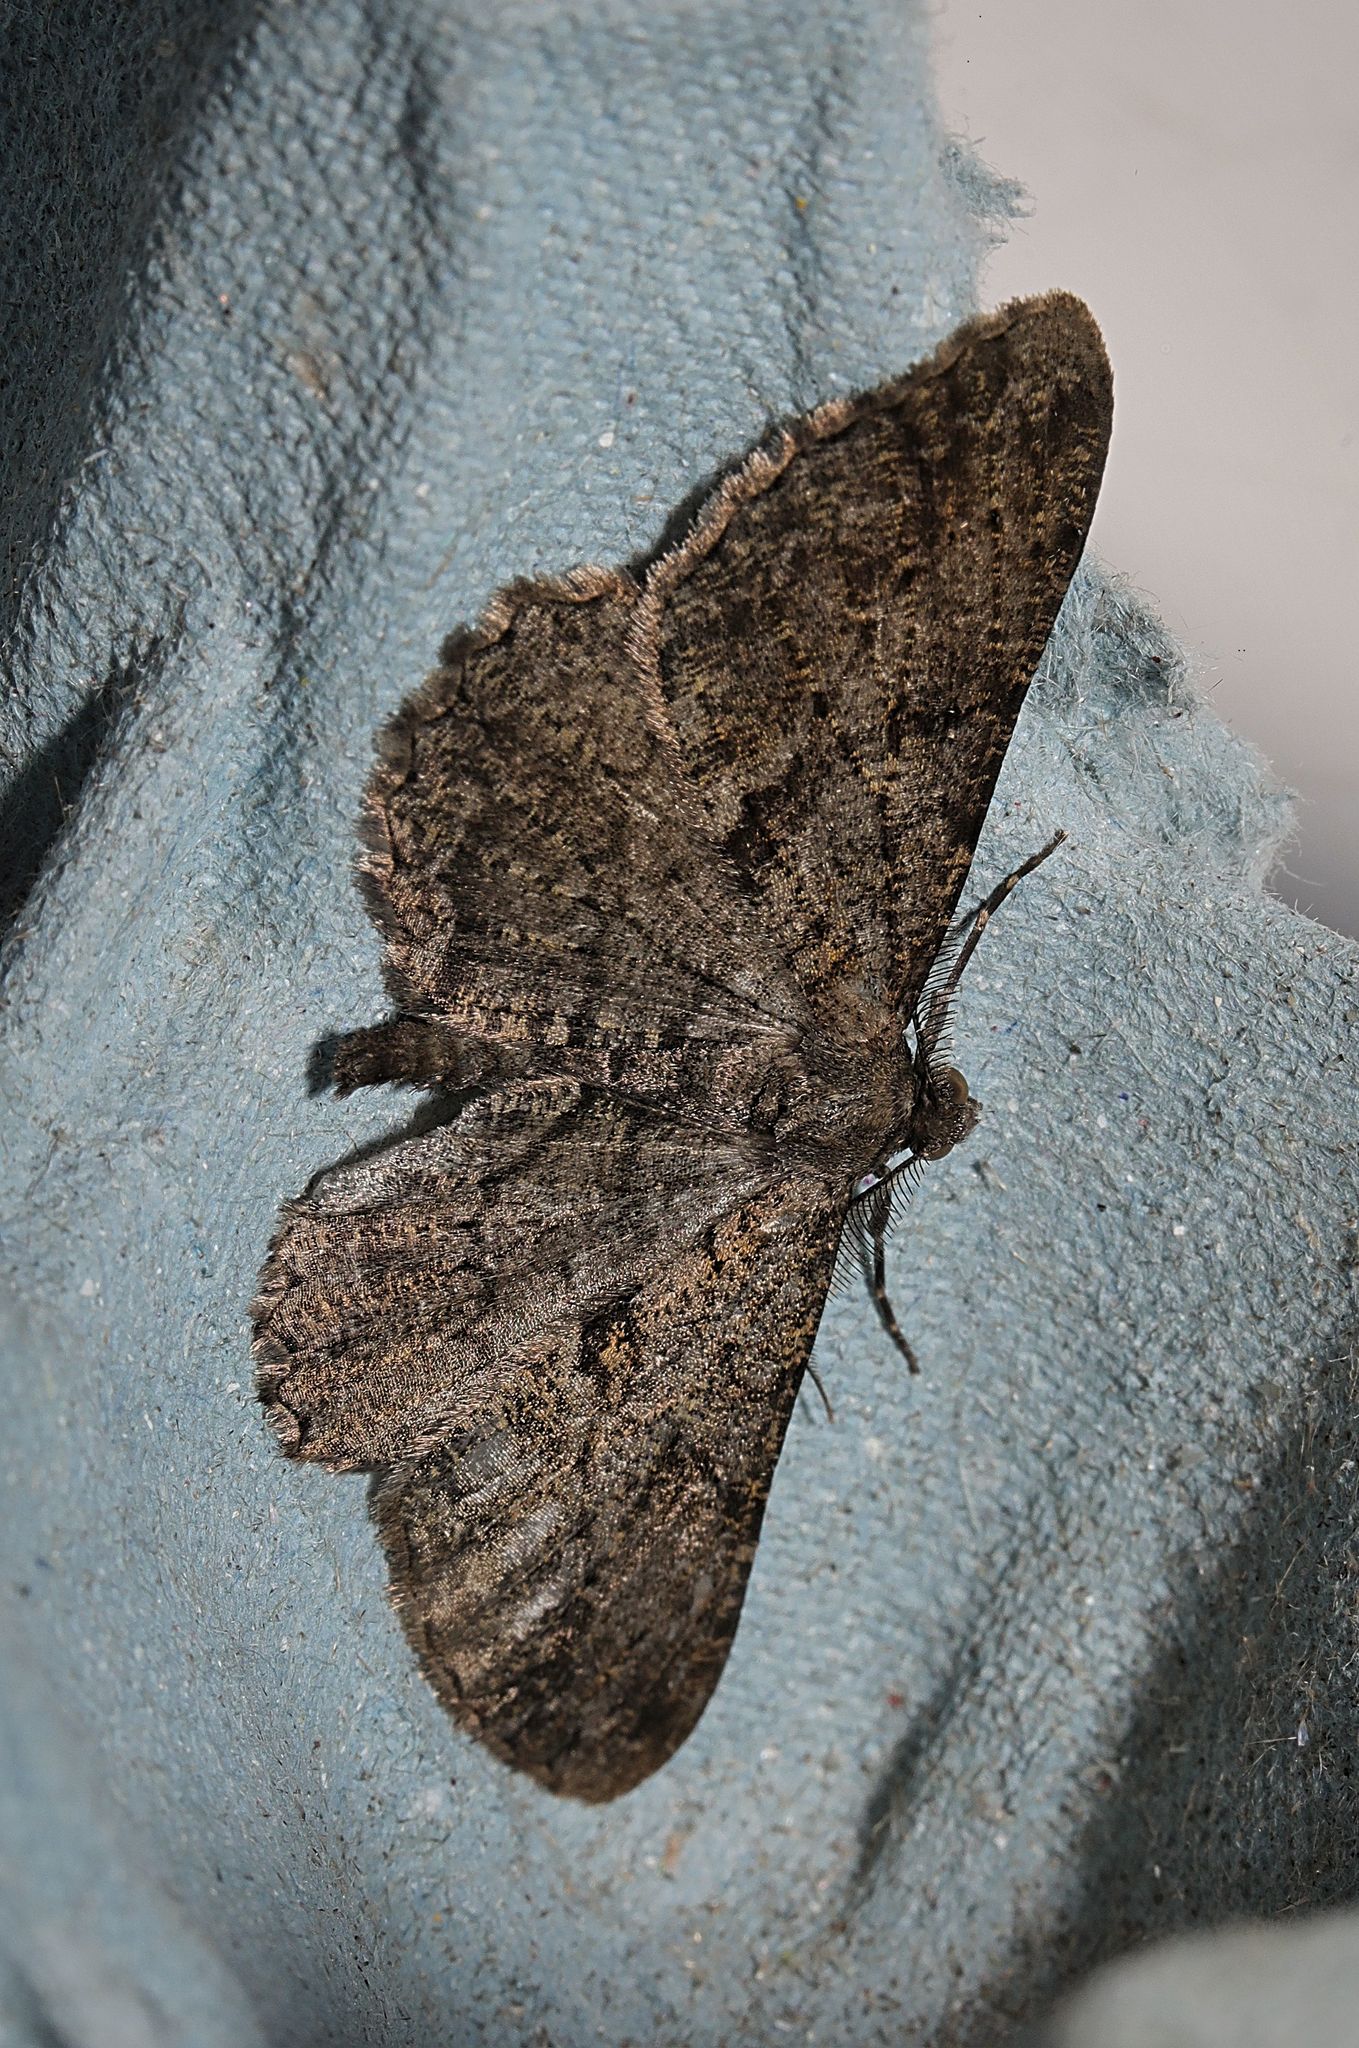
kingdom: Animalia
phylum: Arthropoda
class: Insecta
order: Lepidoptera
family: Geometridae
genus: Peribatodes
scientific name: Peribatodes rhomboidaria
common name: Willow beauty
